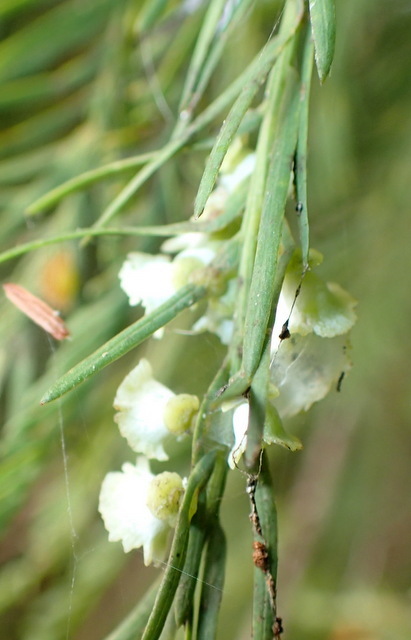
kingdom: Animalia
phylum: Arthropoda
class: Insecta
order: Diptera
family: Cecidomyiidae
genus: Taxodiomyia
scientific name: Taxodiomyia cupressi
